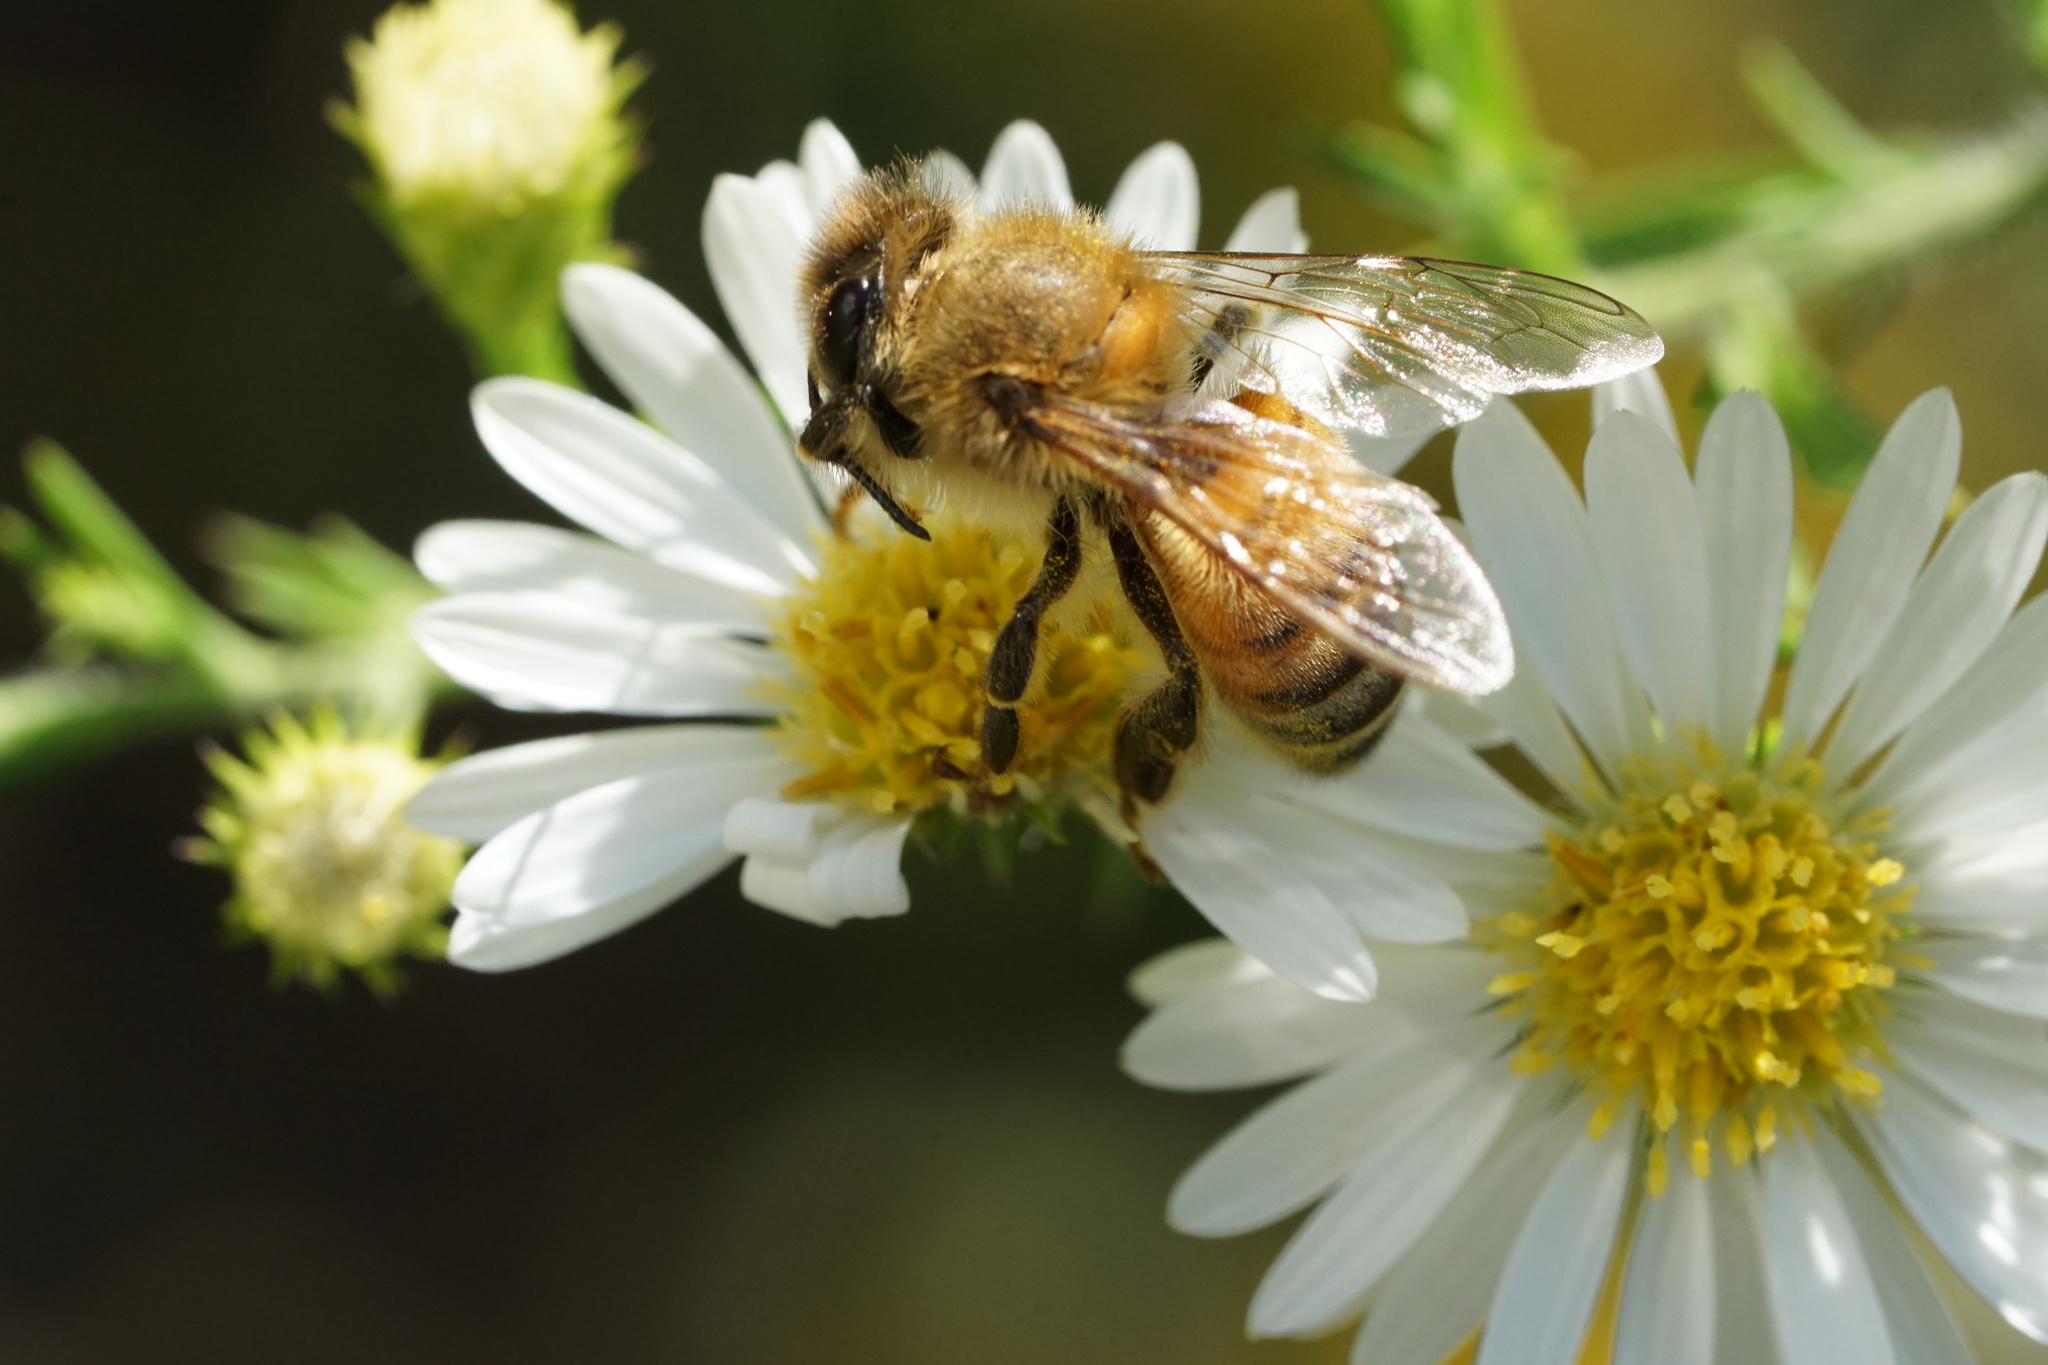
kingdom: Animalia
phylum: Arthropoda
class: Insecta
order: Hymenoptera
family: Apidae
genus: Apis
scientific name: Apis mellifera
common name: Honey bee
